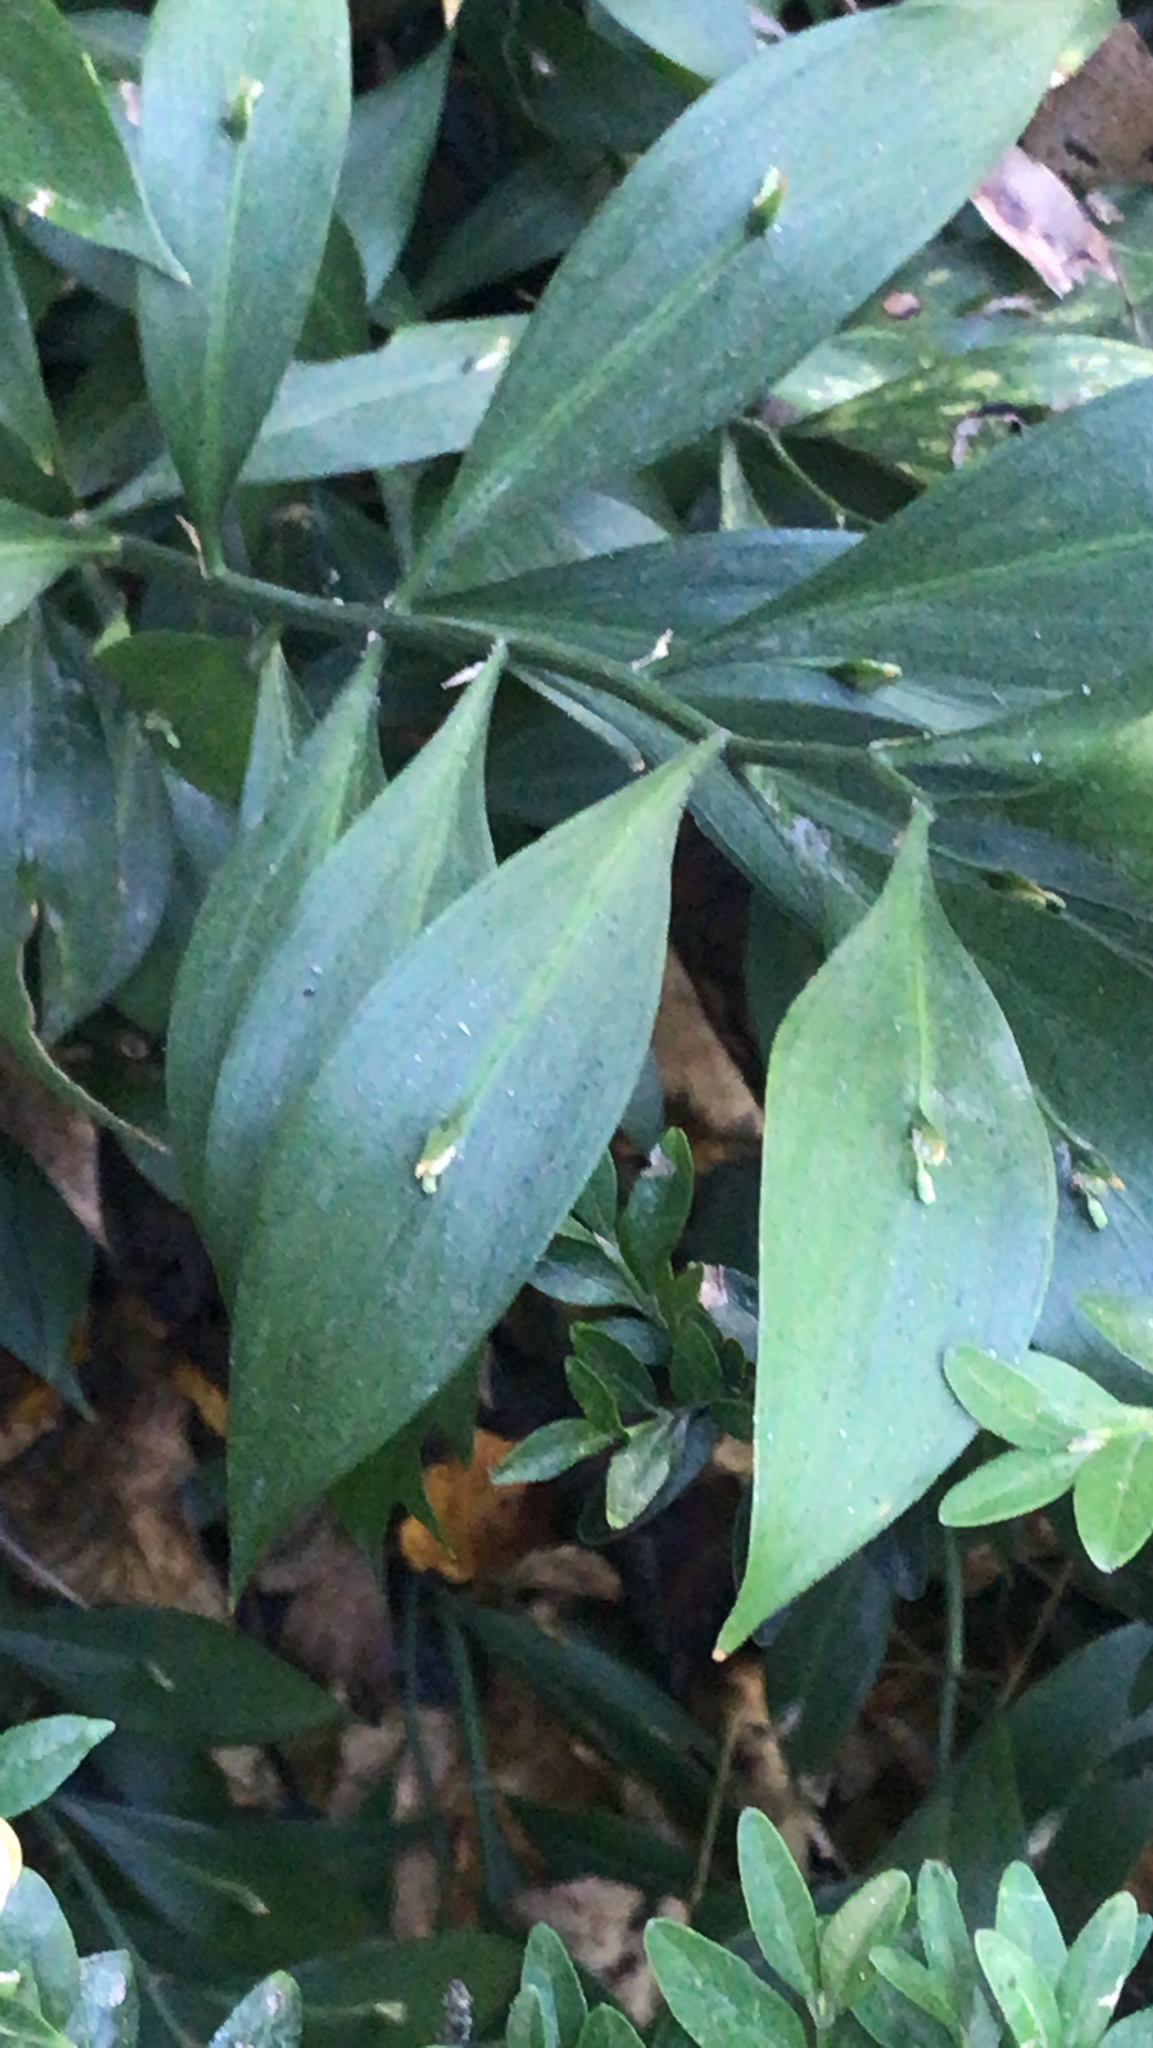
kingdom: Plantae
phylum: Tracheophyta
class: Liliopsida
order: Asparagales
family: Asparagaceae
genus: Ruscus
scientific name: Ruscus aculeatus
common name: Butcher's-broom
